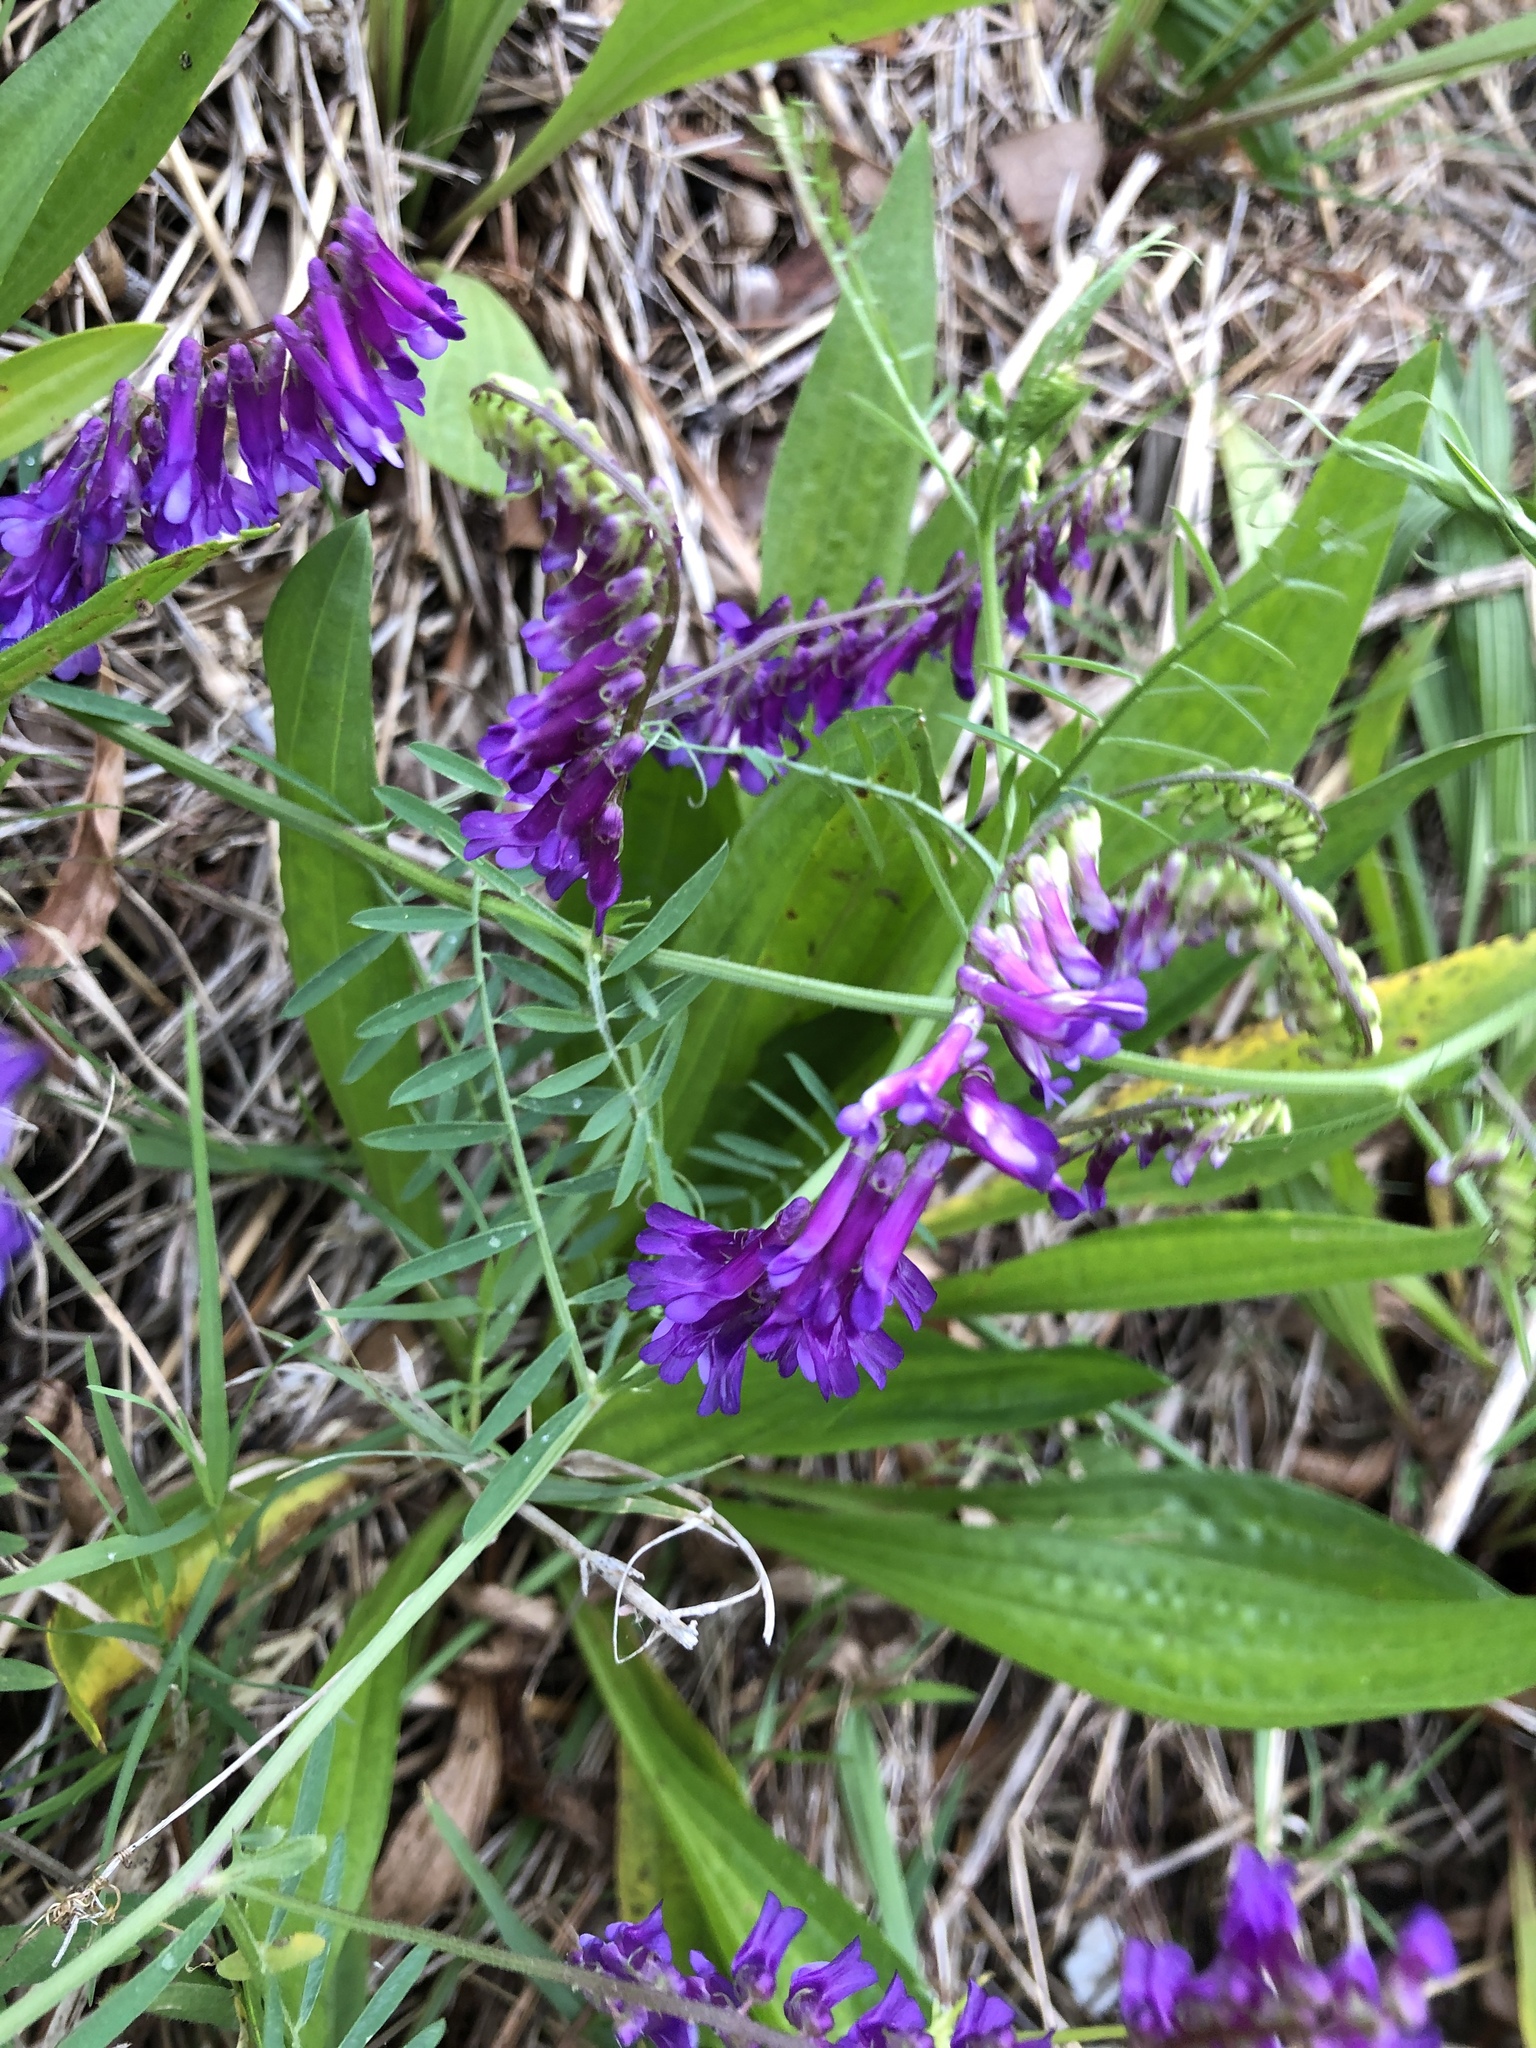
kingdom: Plantae
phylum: Tracheophyta
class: Magnoliopsida
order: Fabales
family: Fabaceae
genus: Vicia
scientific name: Vicia villosa
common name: Fodder vetch
